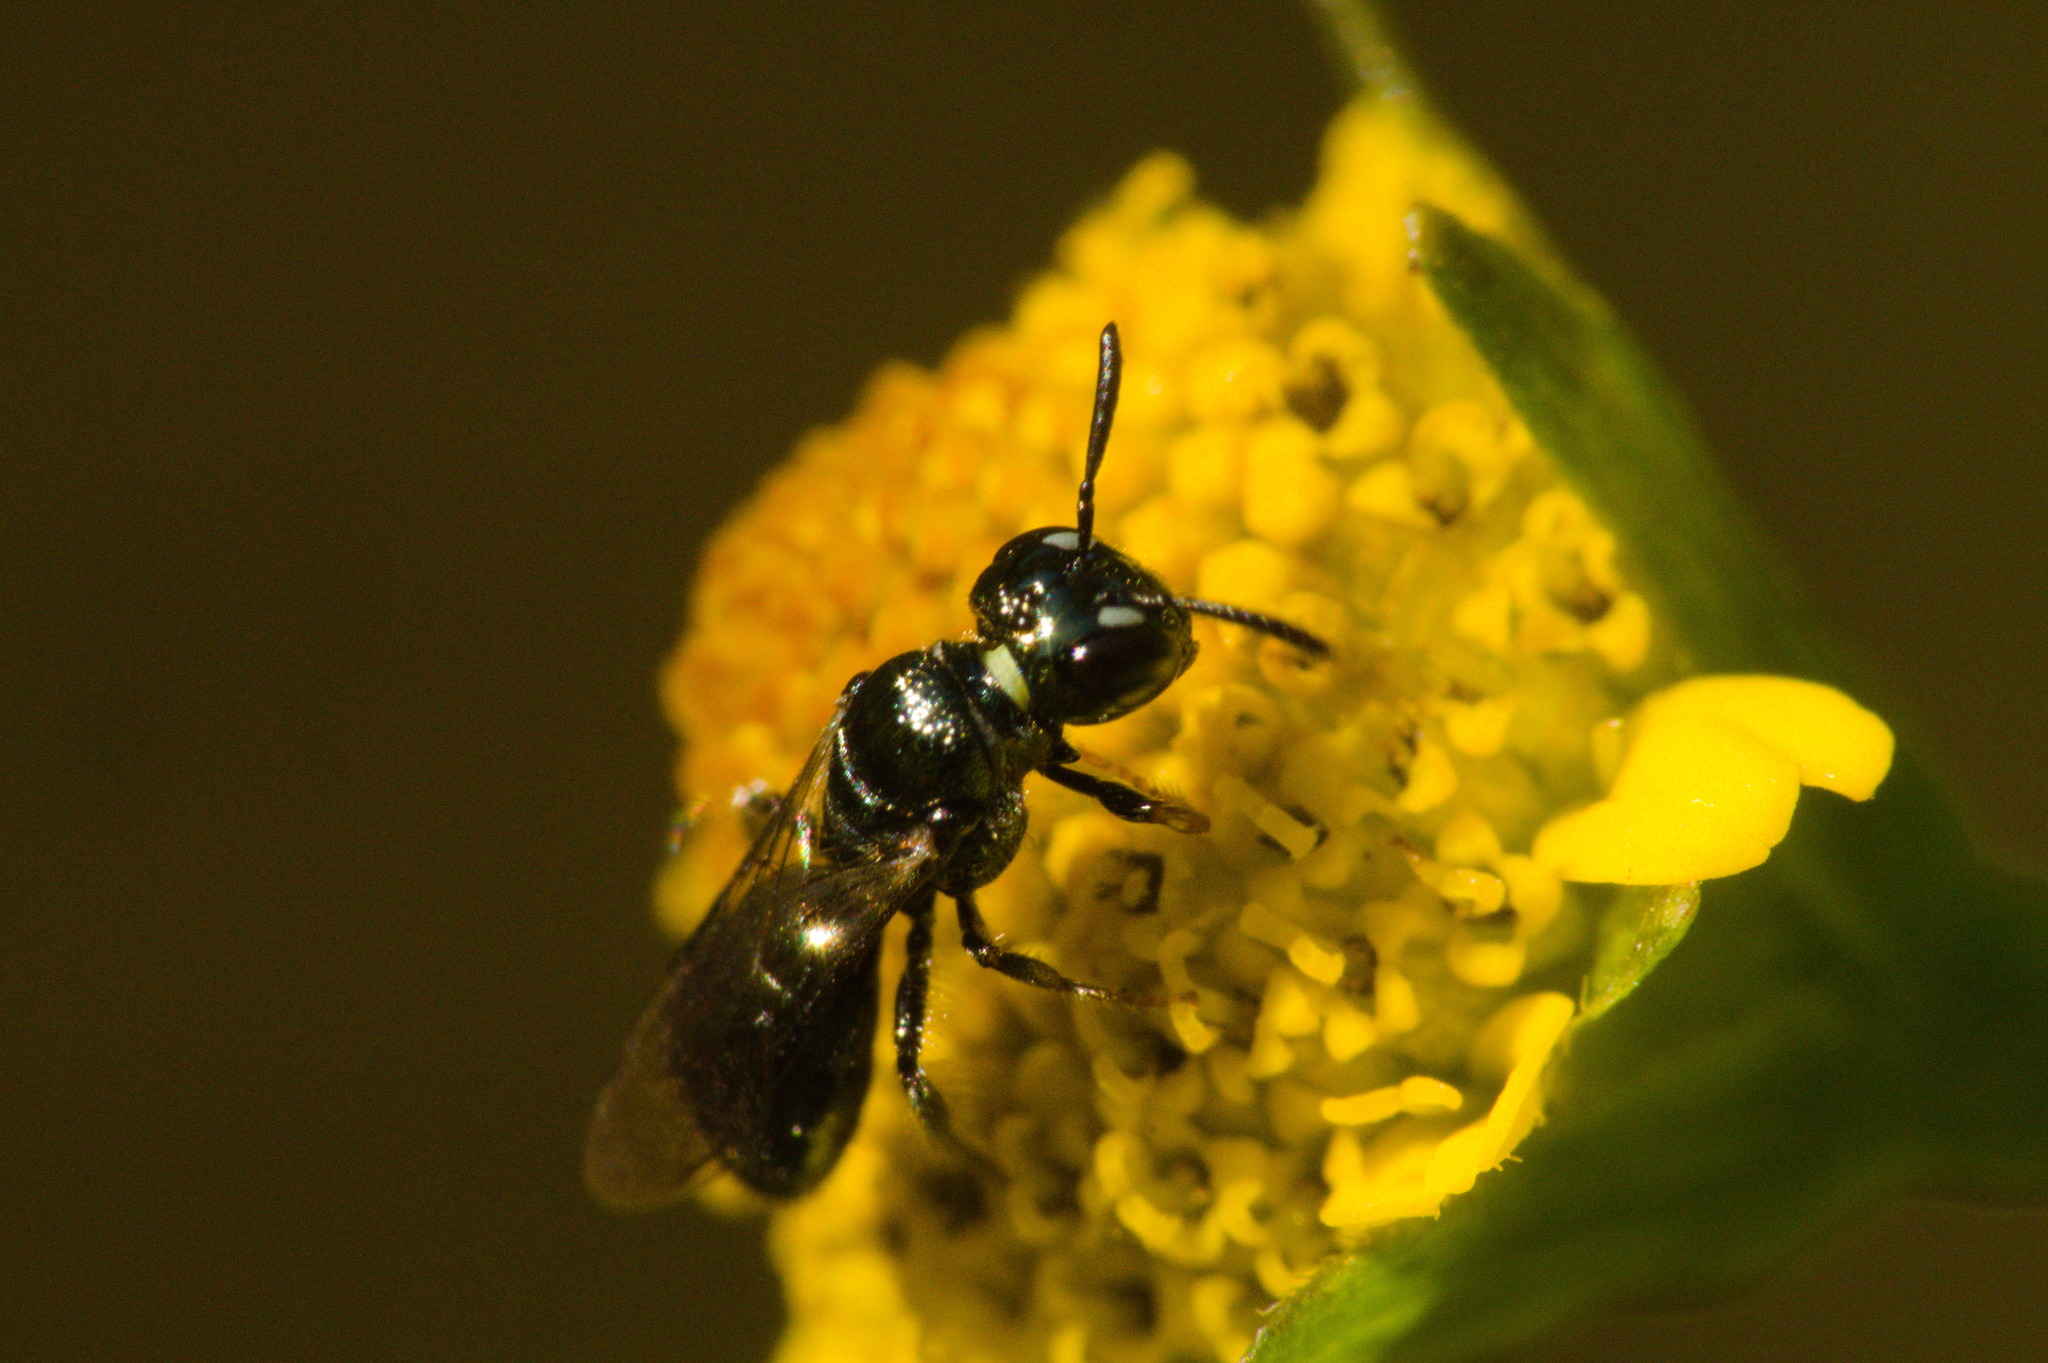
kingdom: Animalia
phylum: Arthropoda
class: Insecta
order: Hymenoptera
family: Apidae
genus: Ceratinula
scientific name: Ceratinula
